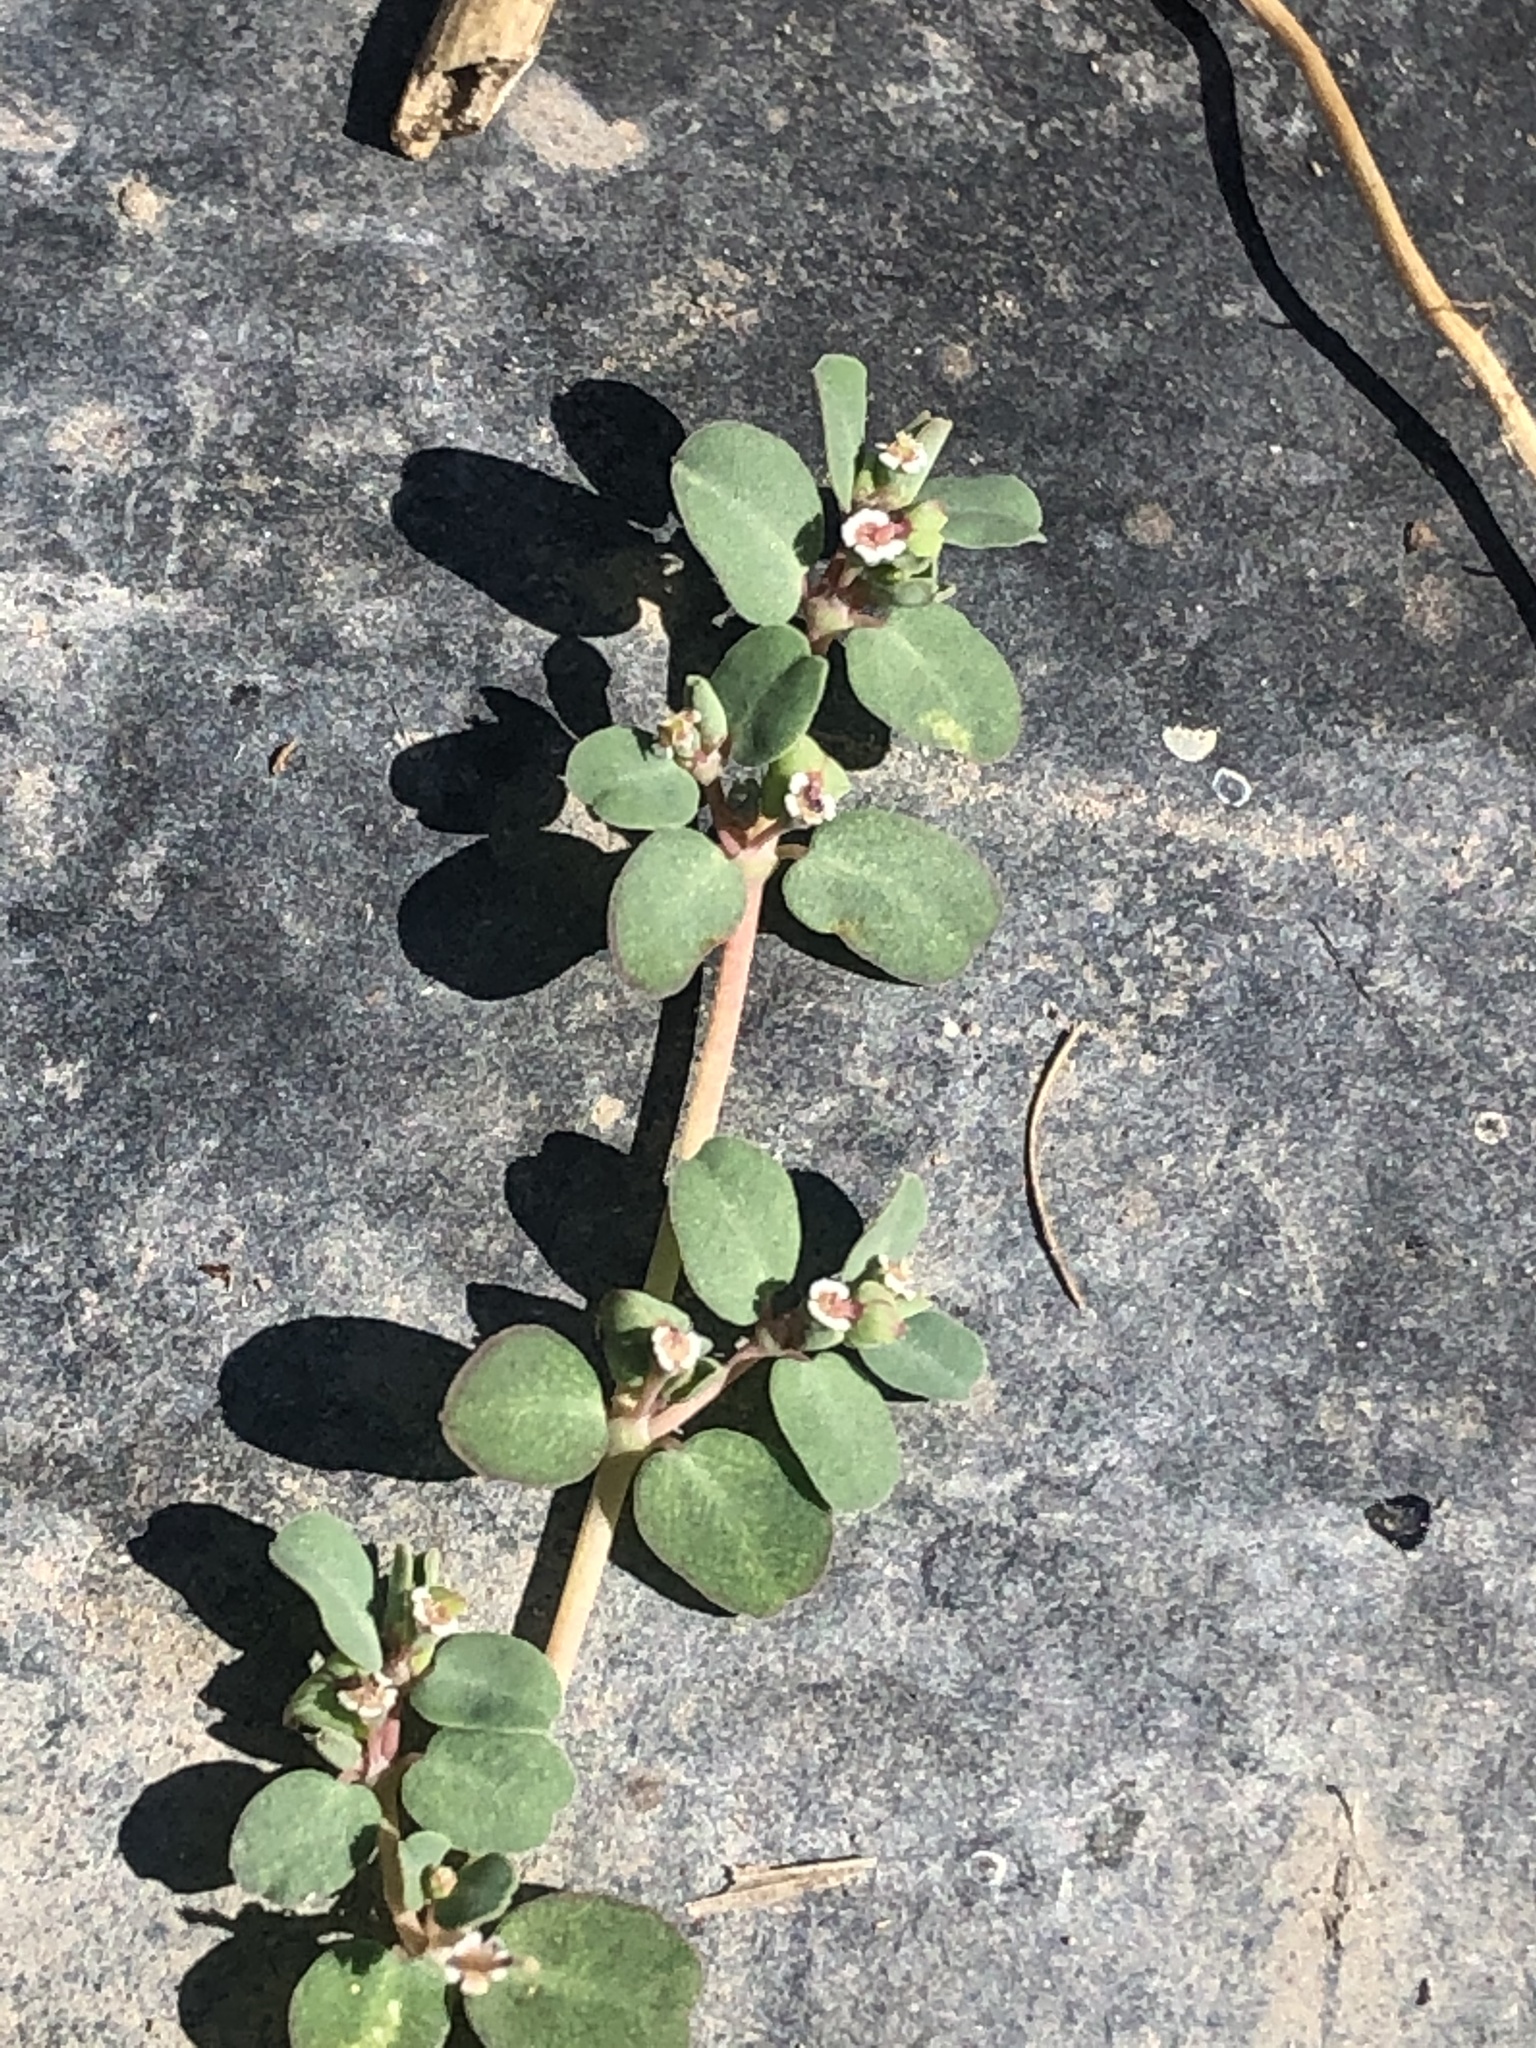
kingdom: Plantae
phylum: Tracheophyta
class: Magnoliopsida
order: Malpighiales
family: Euphorbiaceae
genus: Euphorbia
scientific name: Euphorbia serpens
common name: Matted sandmat
